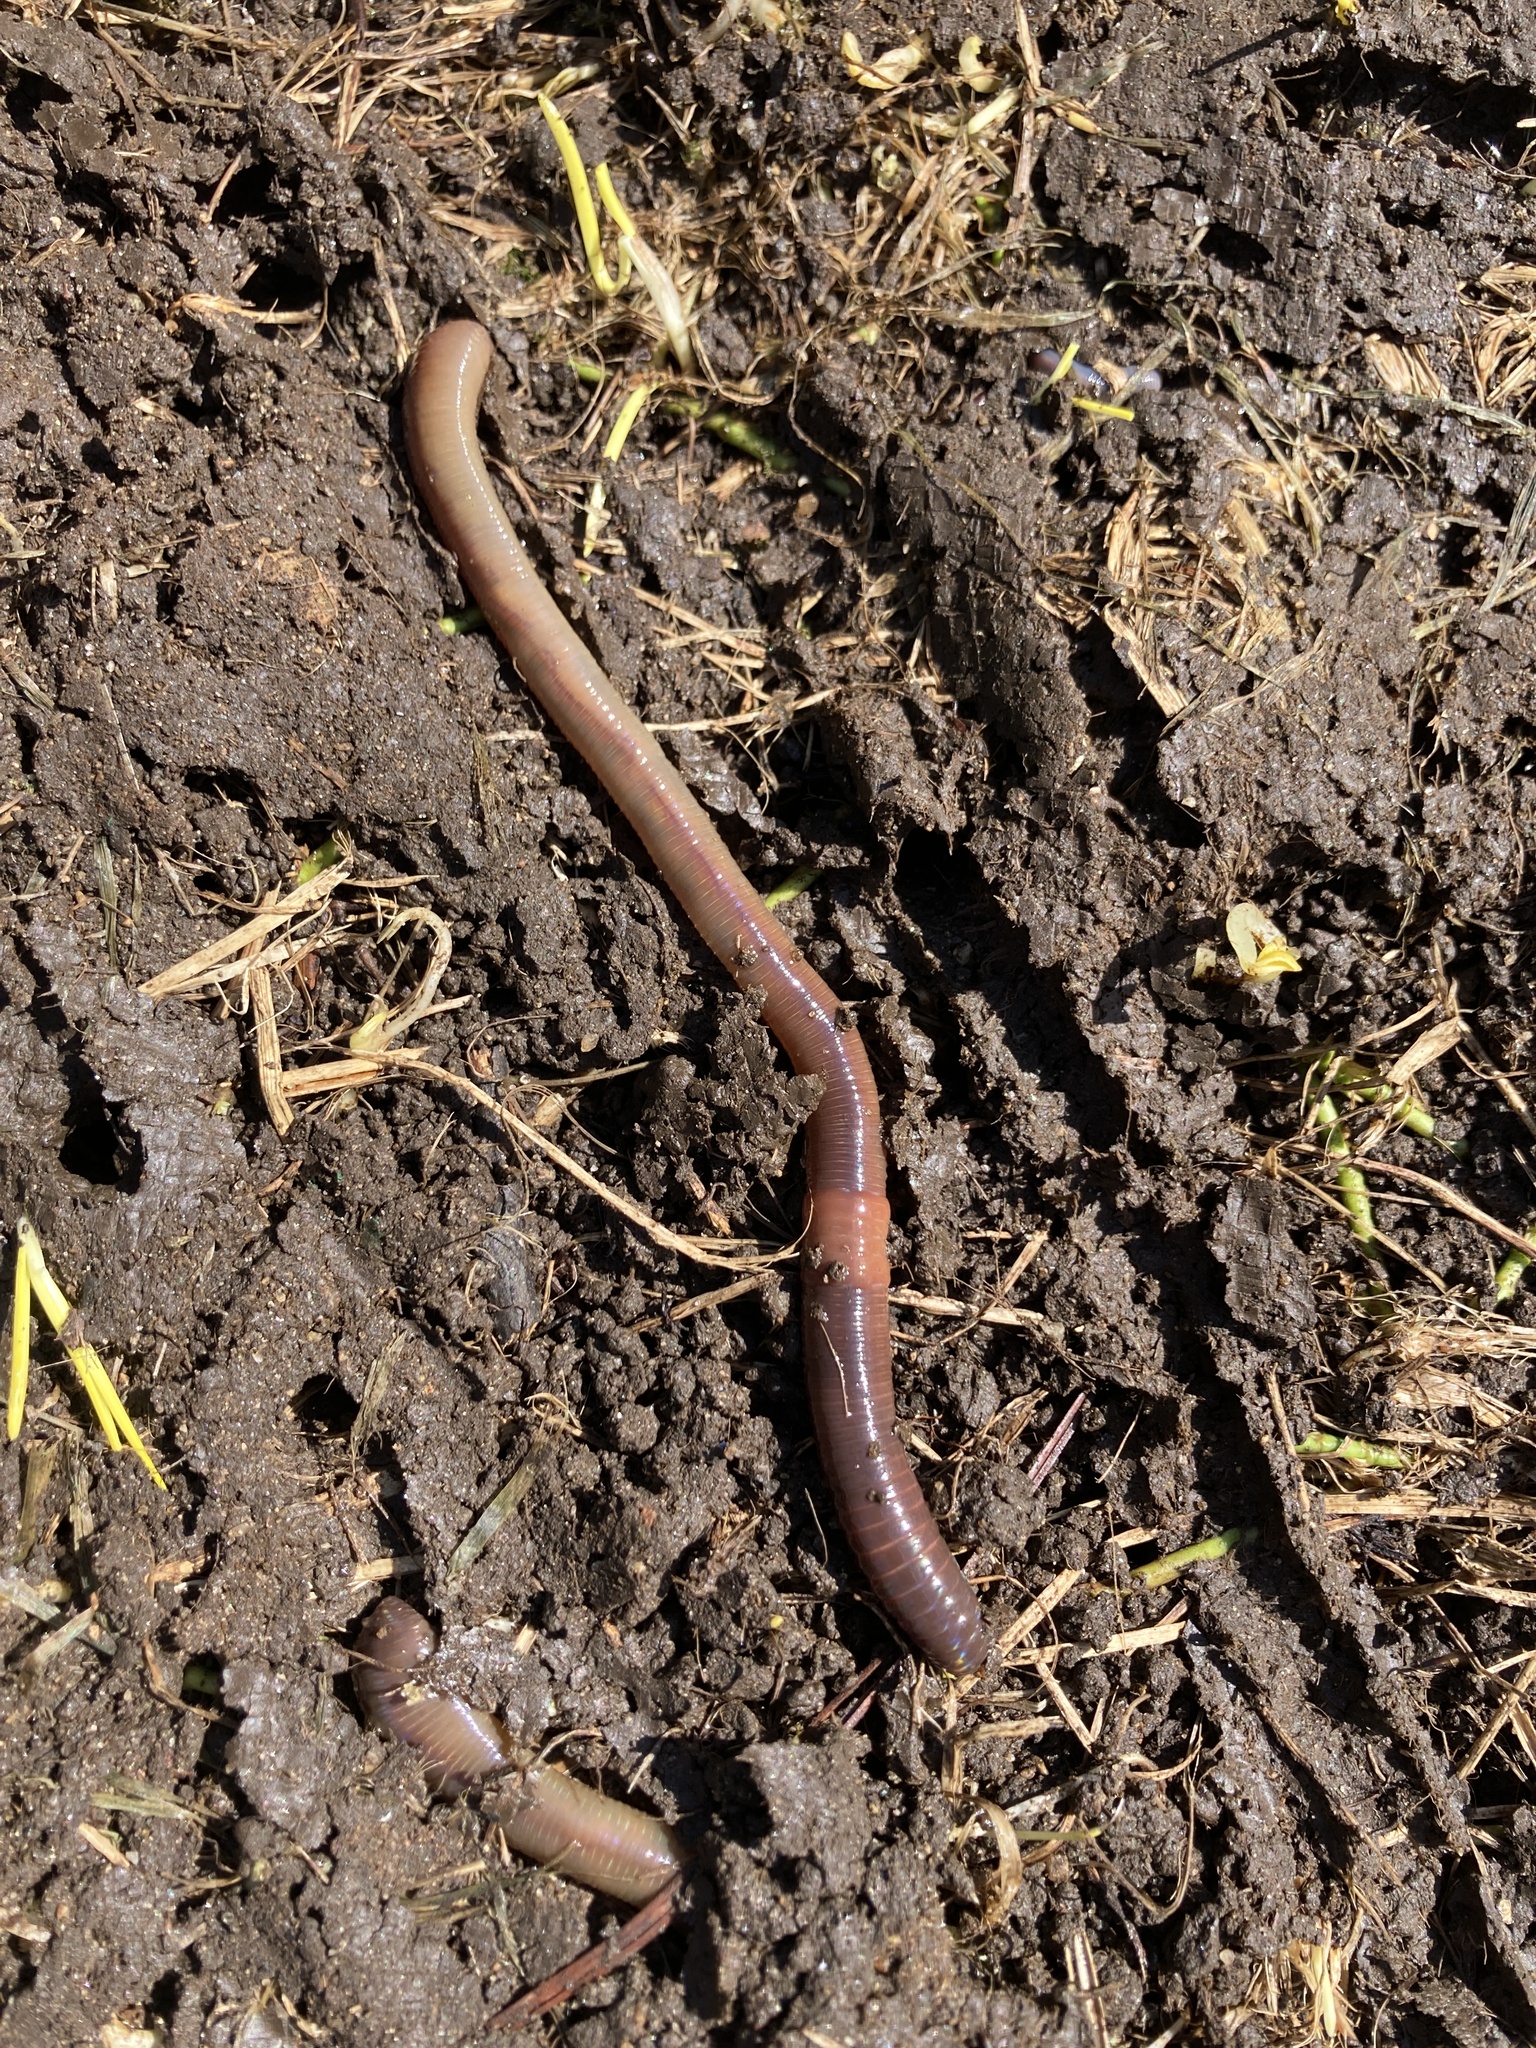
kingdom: Animalia
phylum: Annelida
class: Clitellata
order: Crassiclitellata
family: Lumbricidae
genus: Lumbricus
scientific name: Lumbricus terrestris
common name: Common earthworm
